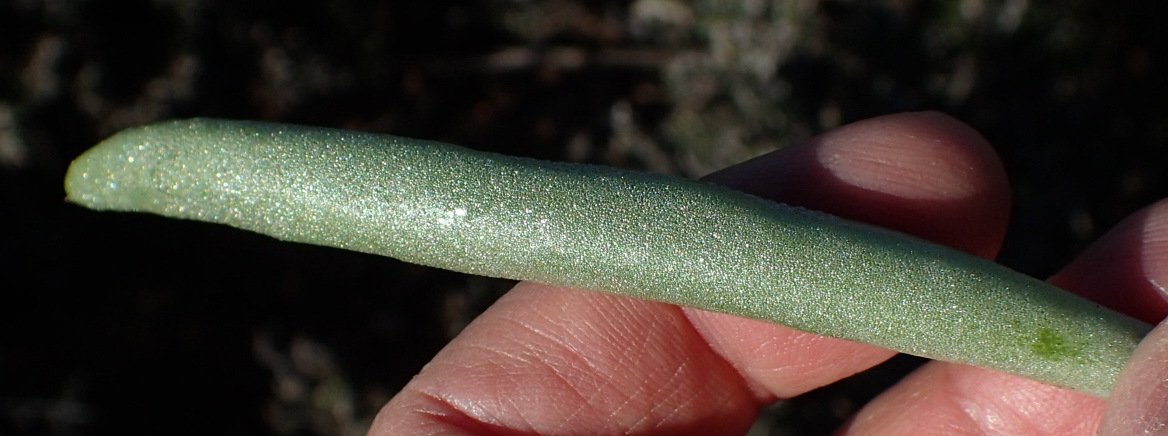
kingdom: Plantae
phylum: Tracheophyta
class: Magnoliopsida
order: Saxifragales
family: Crassulaceae
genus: Tylecodon
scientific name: Tylecodon ventricosus
